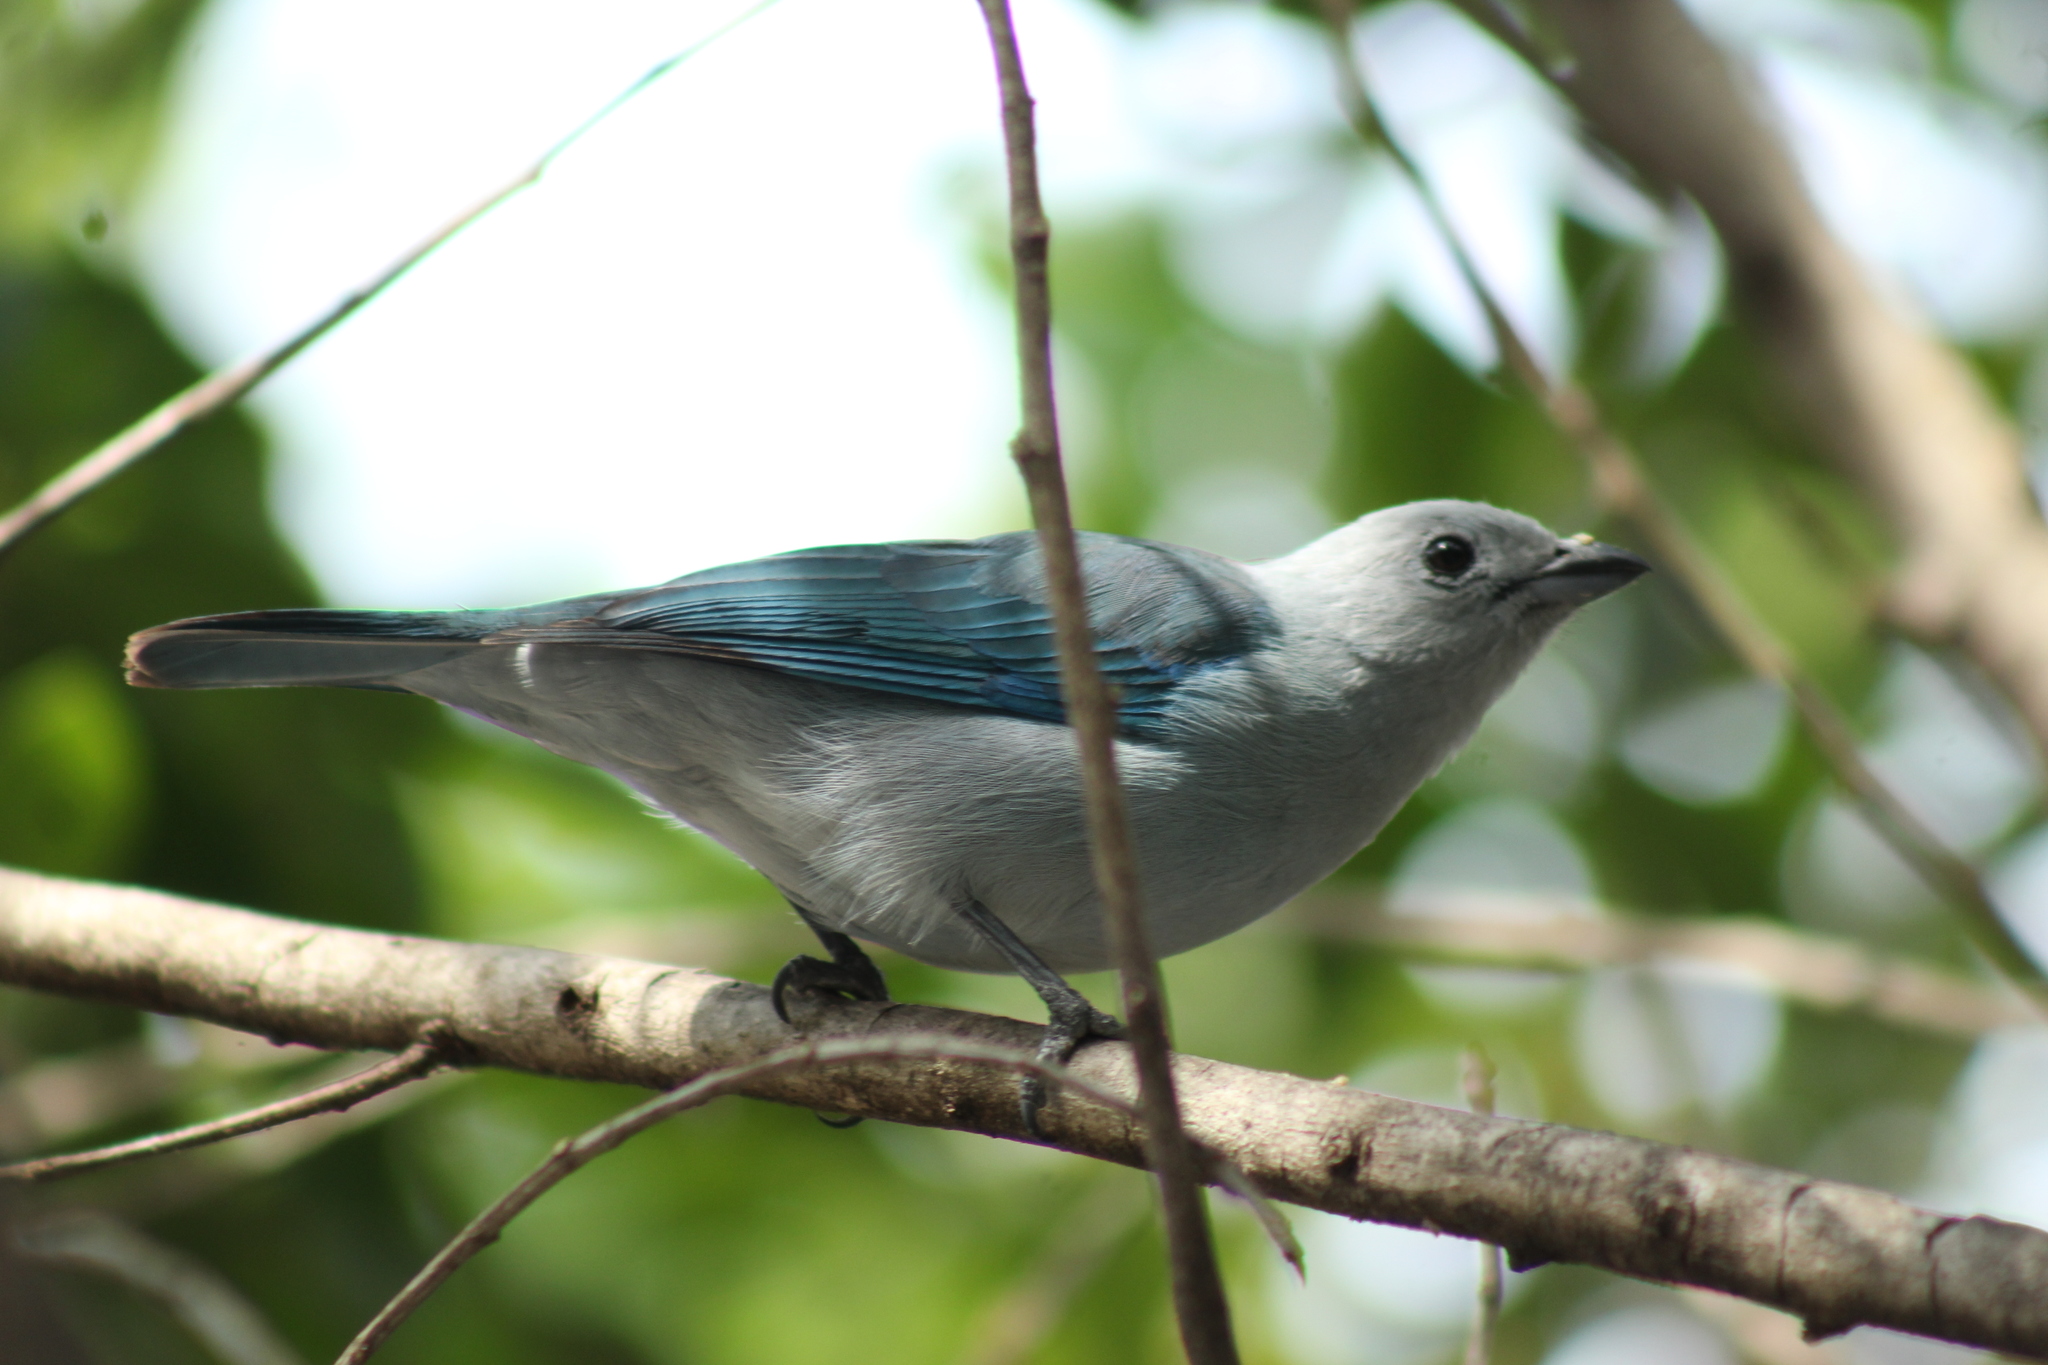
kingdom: Animalia
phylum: Chordata
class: Aves
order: Passeriformes
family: Thraupidae
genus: Thraupis
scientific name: Thraupis episcopus
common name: Blue-grey tanager
